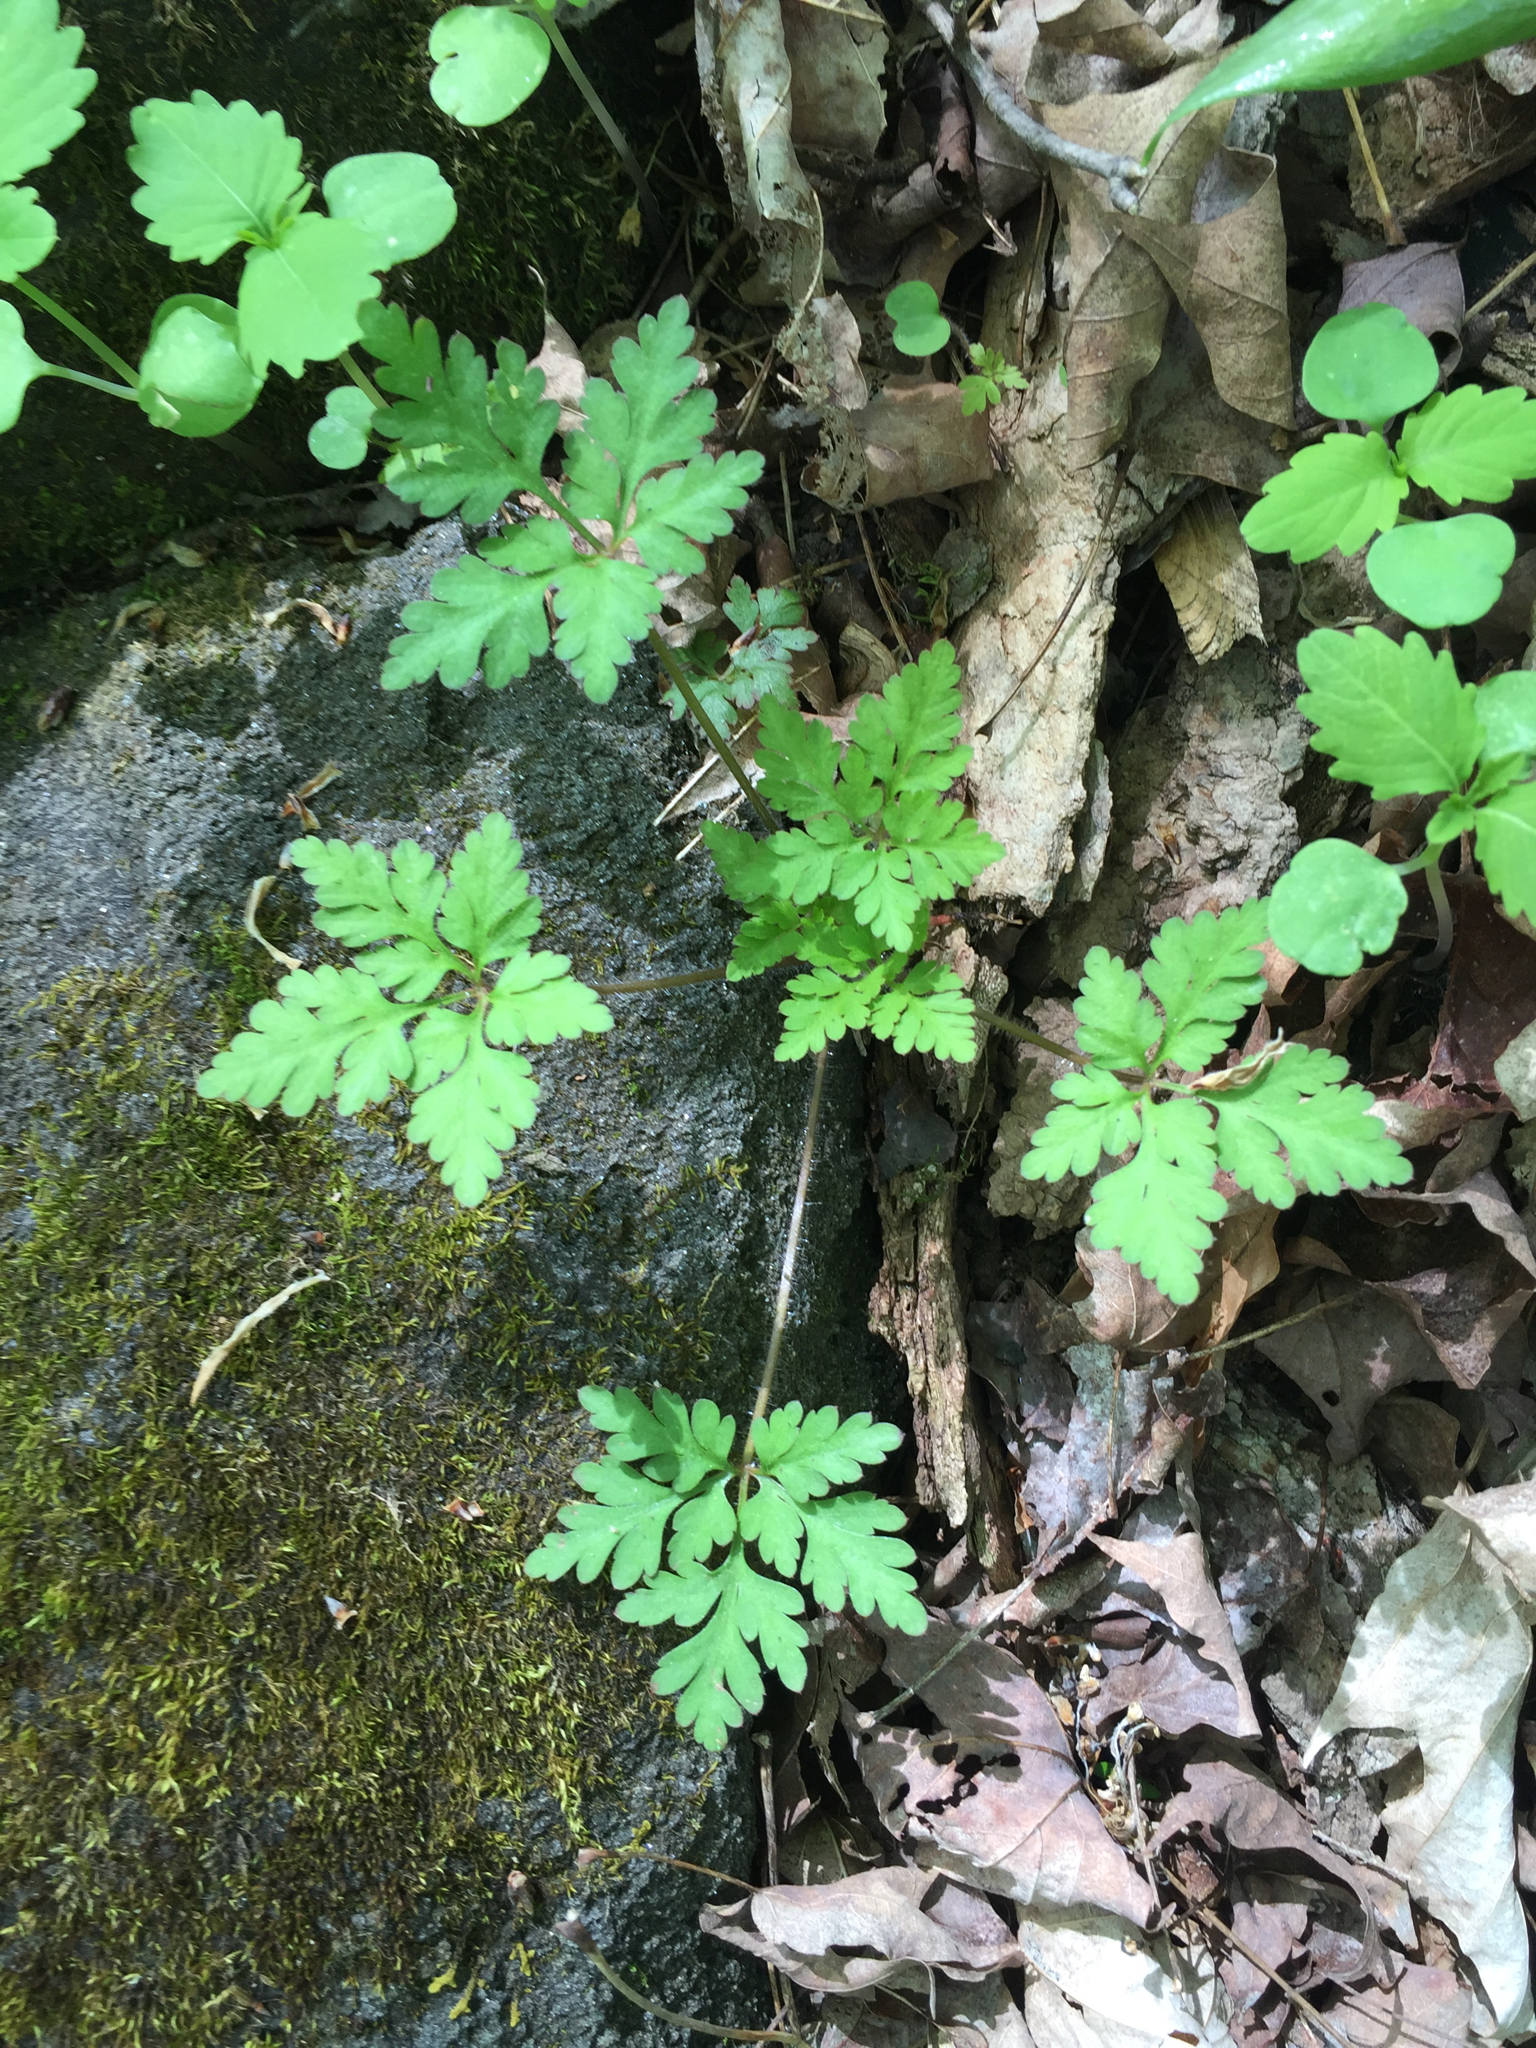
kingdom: Plantae
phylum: Tracheophyta
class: Magnoliopsida
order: Geraniales
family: Geraniaceae
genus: Geranium
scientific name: Geranium robertianum
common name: Herb-robert
